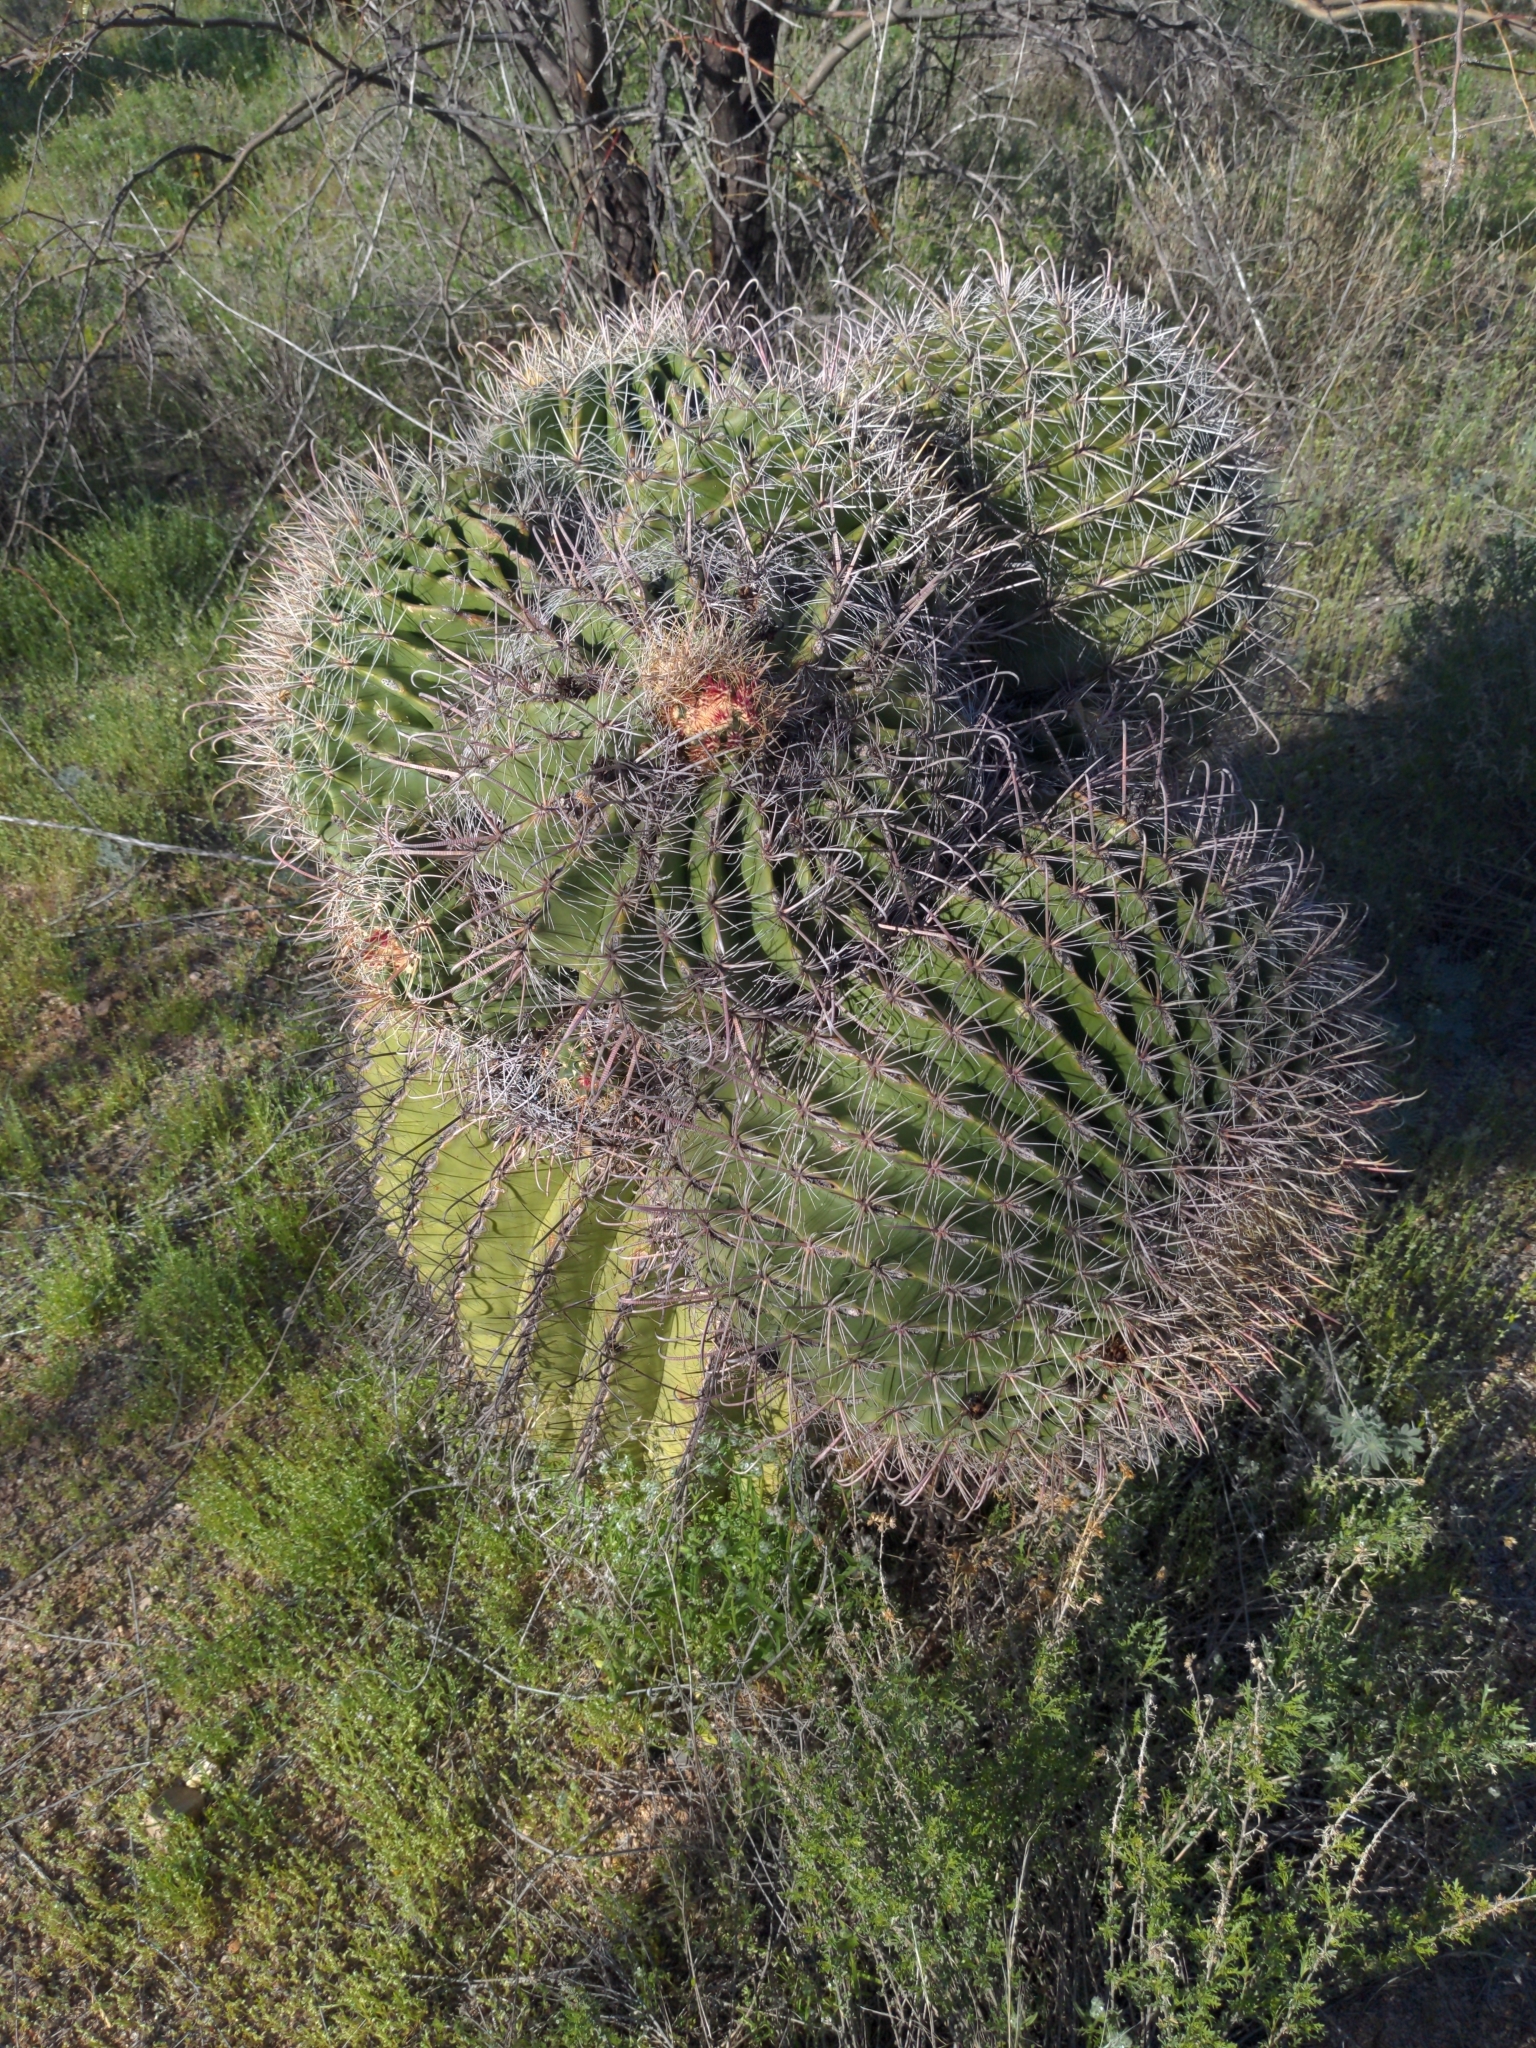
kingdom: Plantae
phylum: Tracheophyta
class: Magnoliopsida
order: Caryophyllales
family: Cactaceae
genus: Ferocactus
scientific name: Ferocactus wislizeni
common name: Candy barrel cactus
